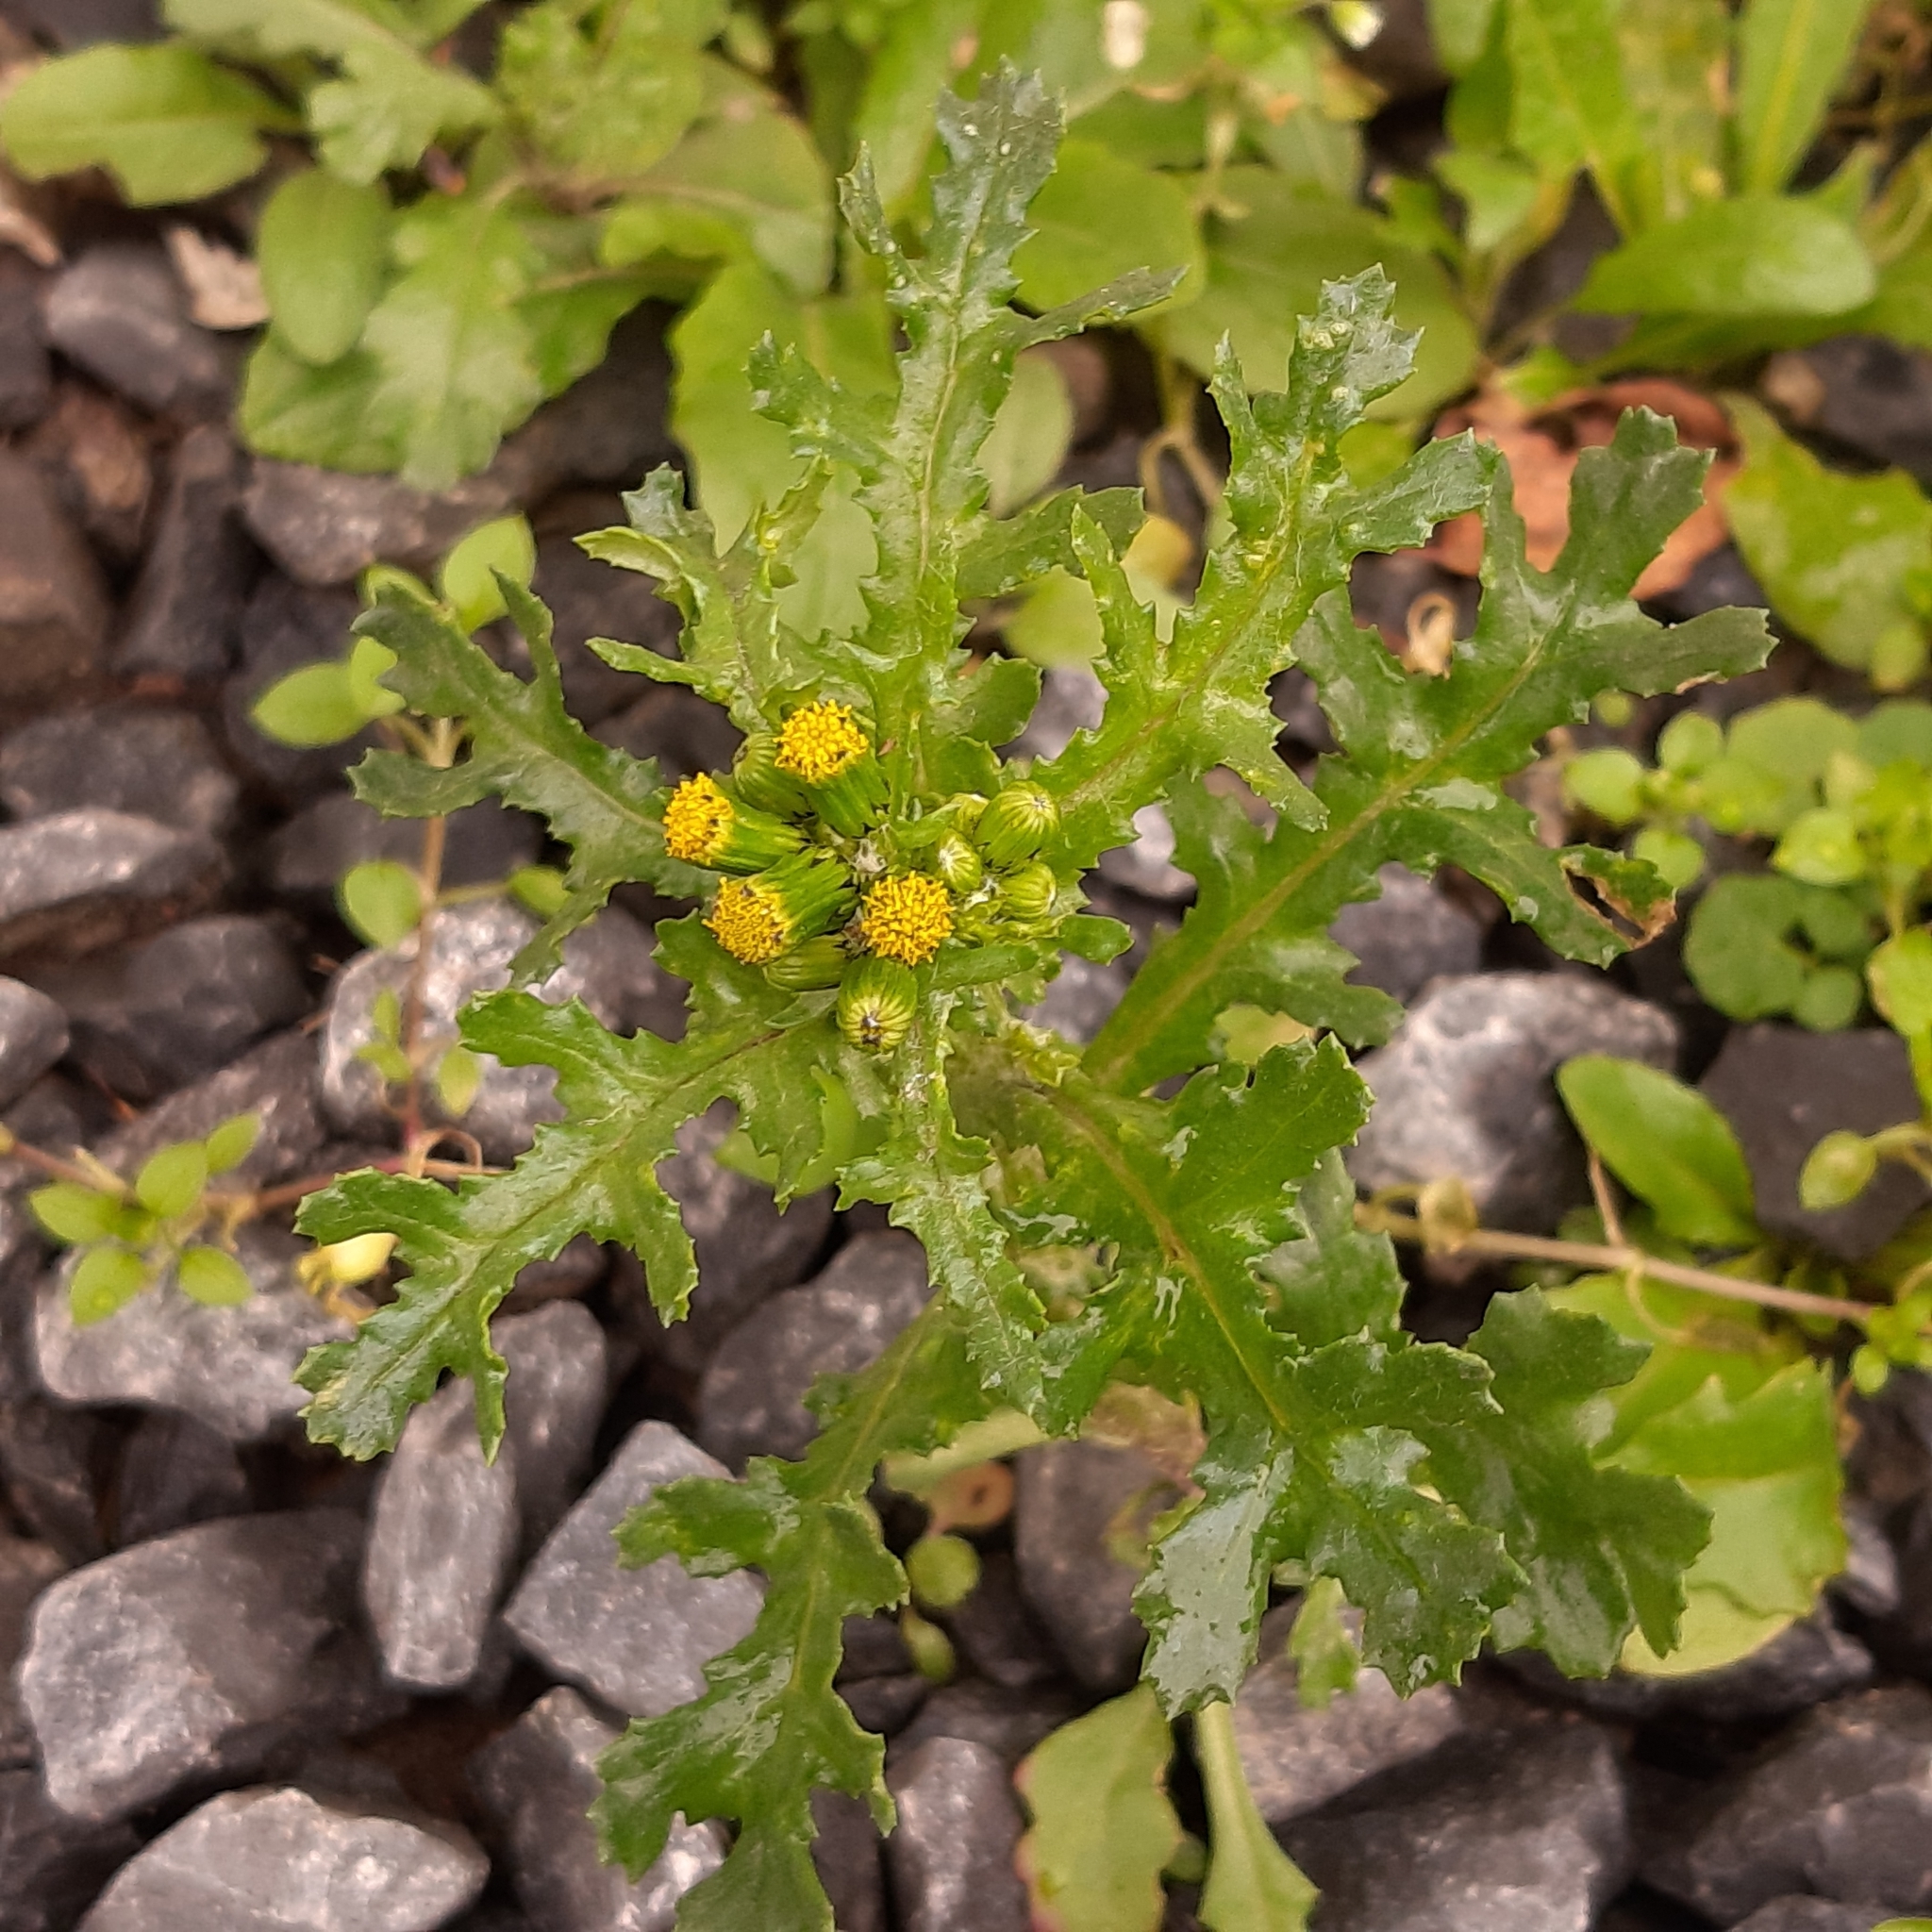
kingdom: Plantae
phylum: Tracheophyta
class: Magnoliopsida
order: Asterales
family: Asteraceae
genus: Senecio
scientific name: Senecio vulgaris
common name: Old-man-in-the-spring
